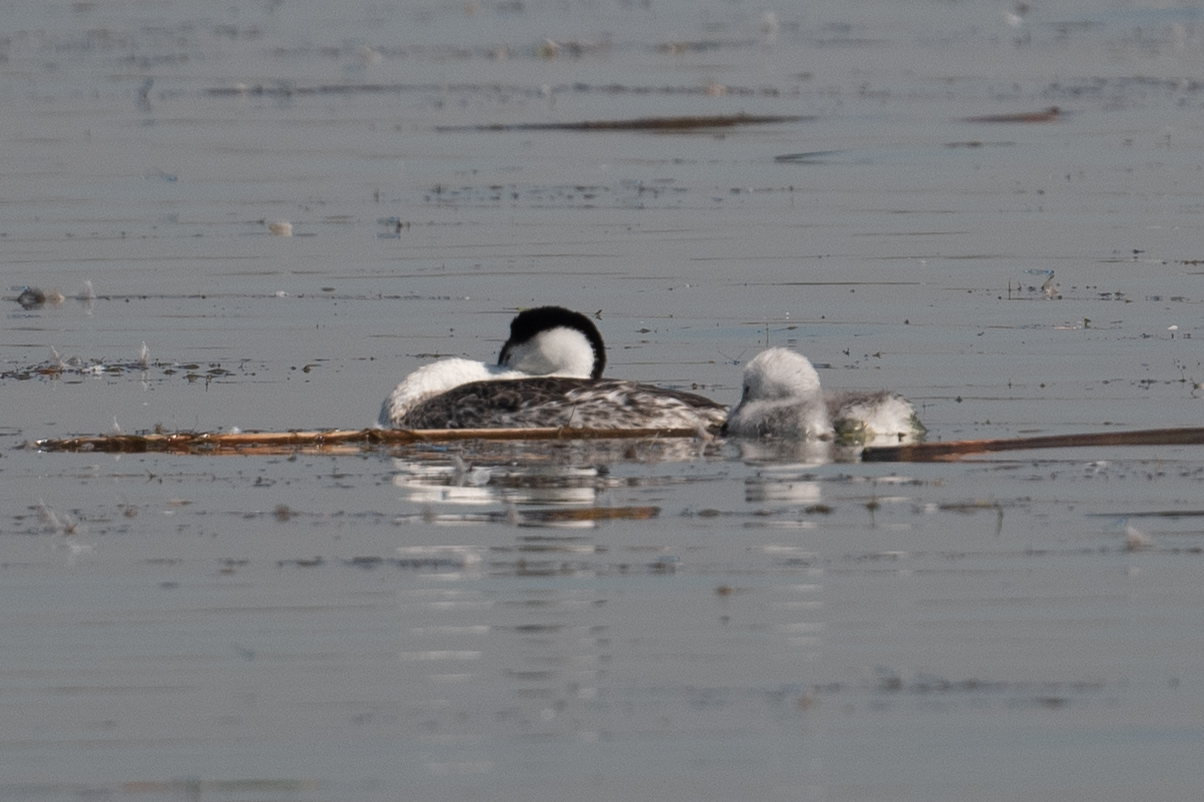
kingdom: Animalia
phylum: Chordata
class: Aves
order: Podicipediformes
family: Podicipedidae
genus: Aechmophorus
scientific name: Aechmophorus clarkii
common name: Clark's grebe
